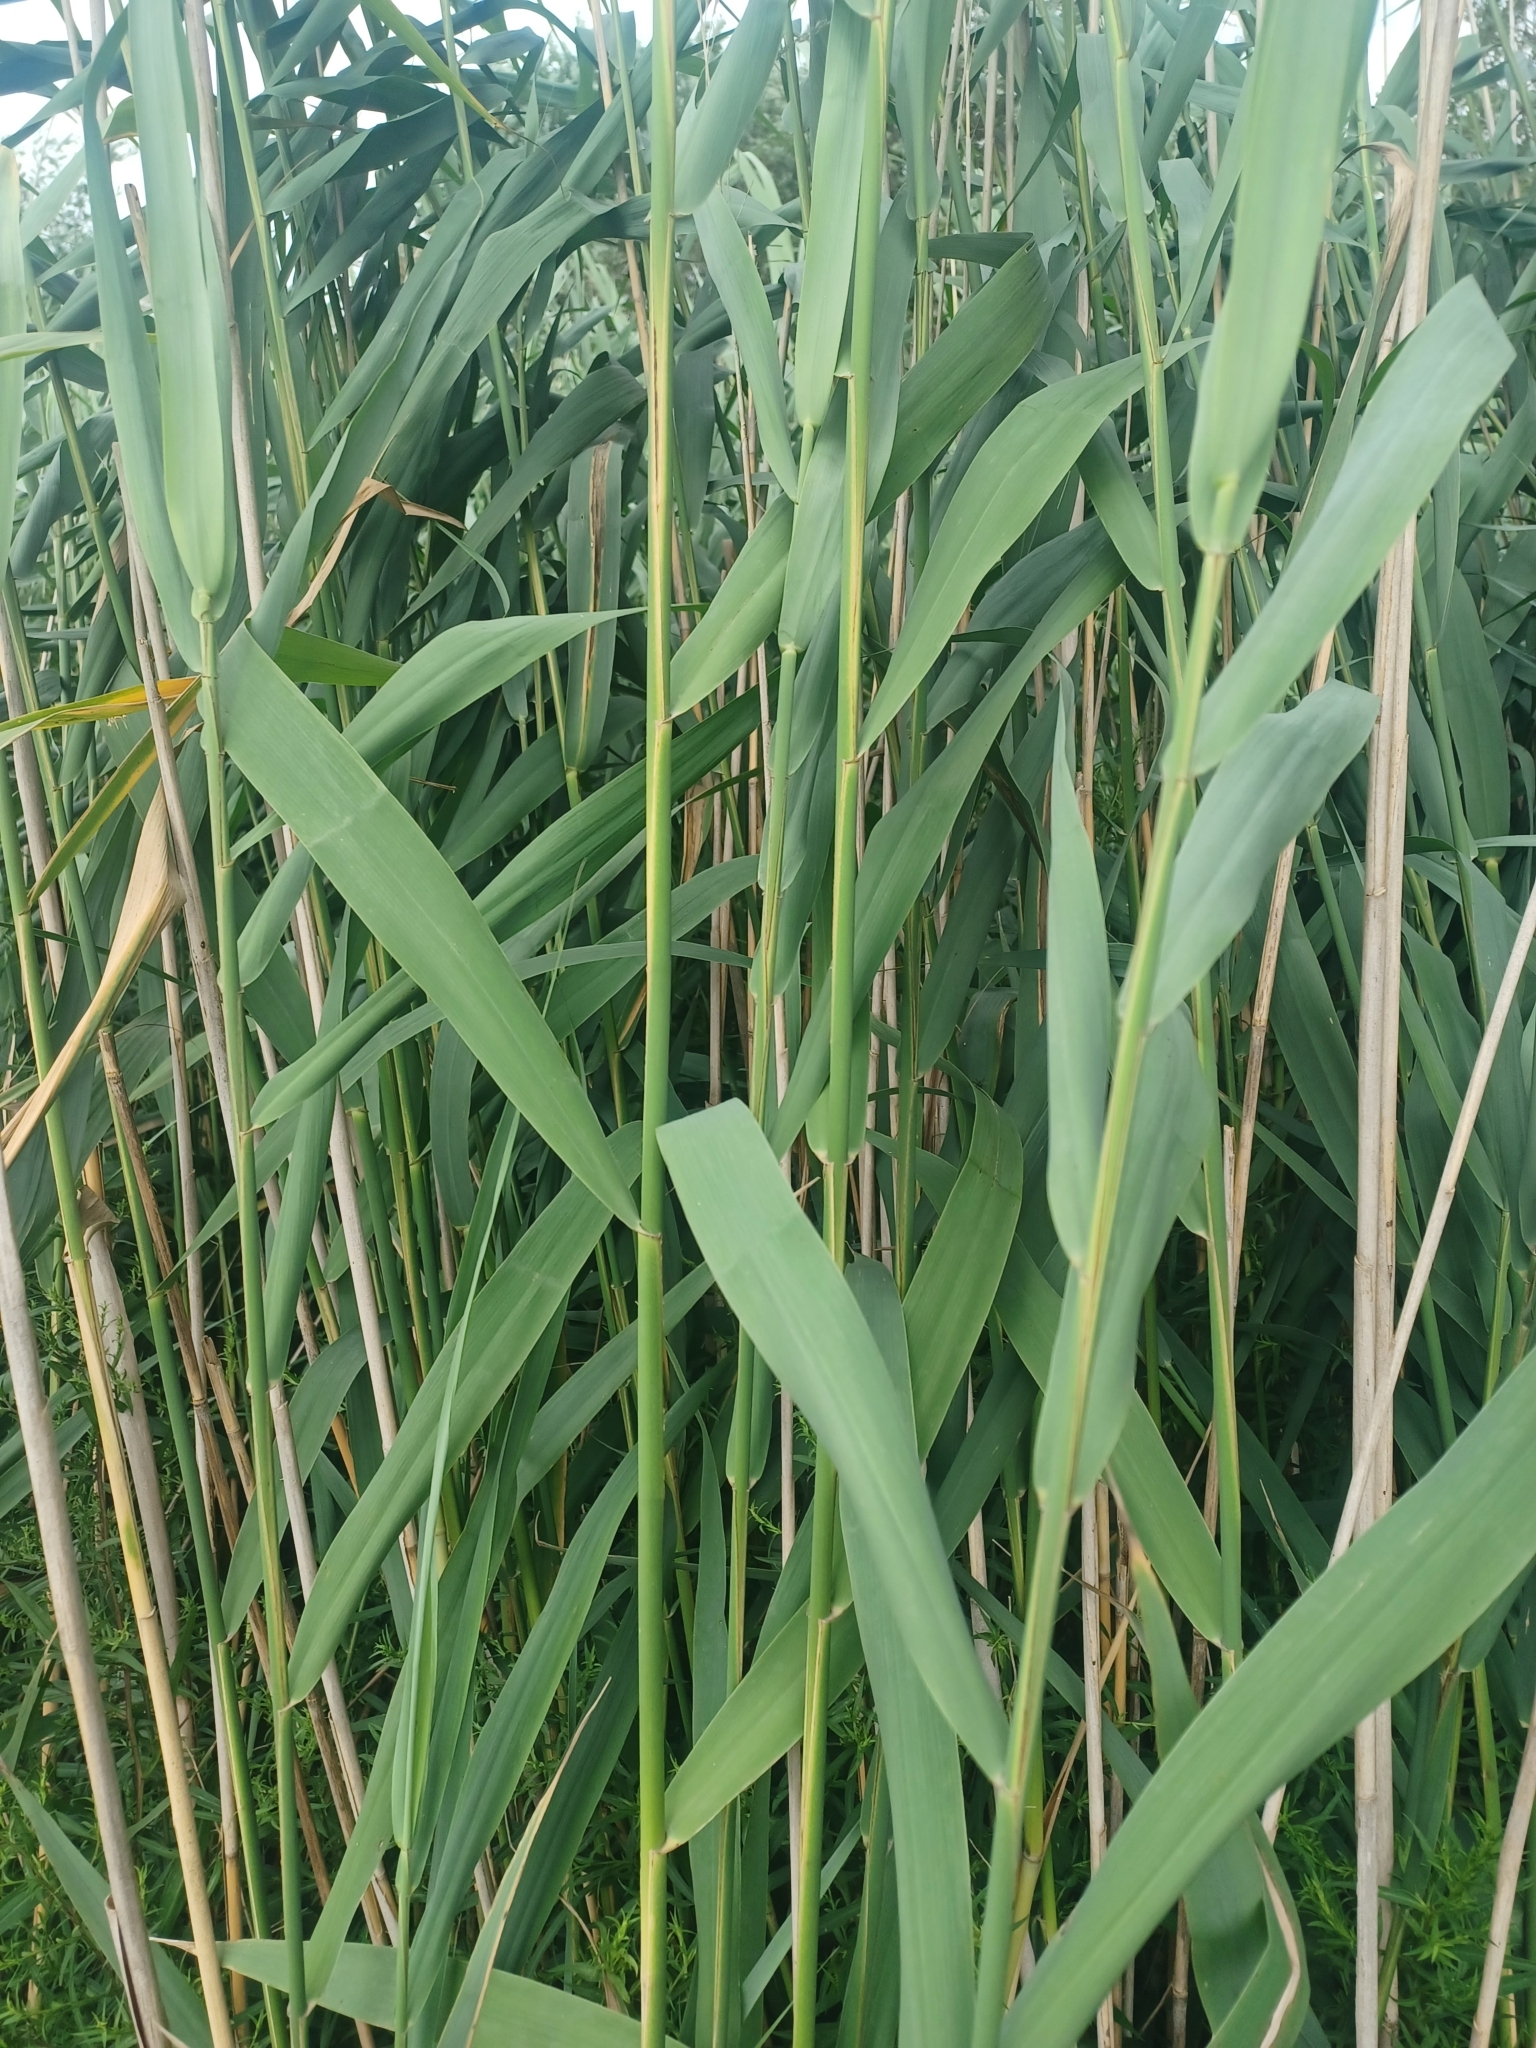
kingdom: Plantae
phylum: Tracheophyta
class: Liliopsida
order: Poales
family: Poaceae
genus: Phragmites
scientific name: Phragmites australis
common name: Common reed
